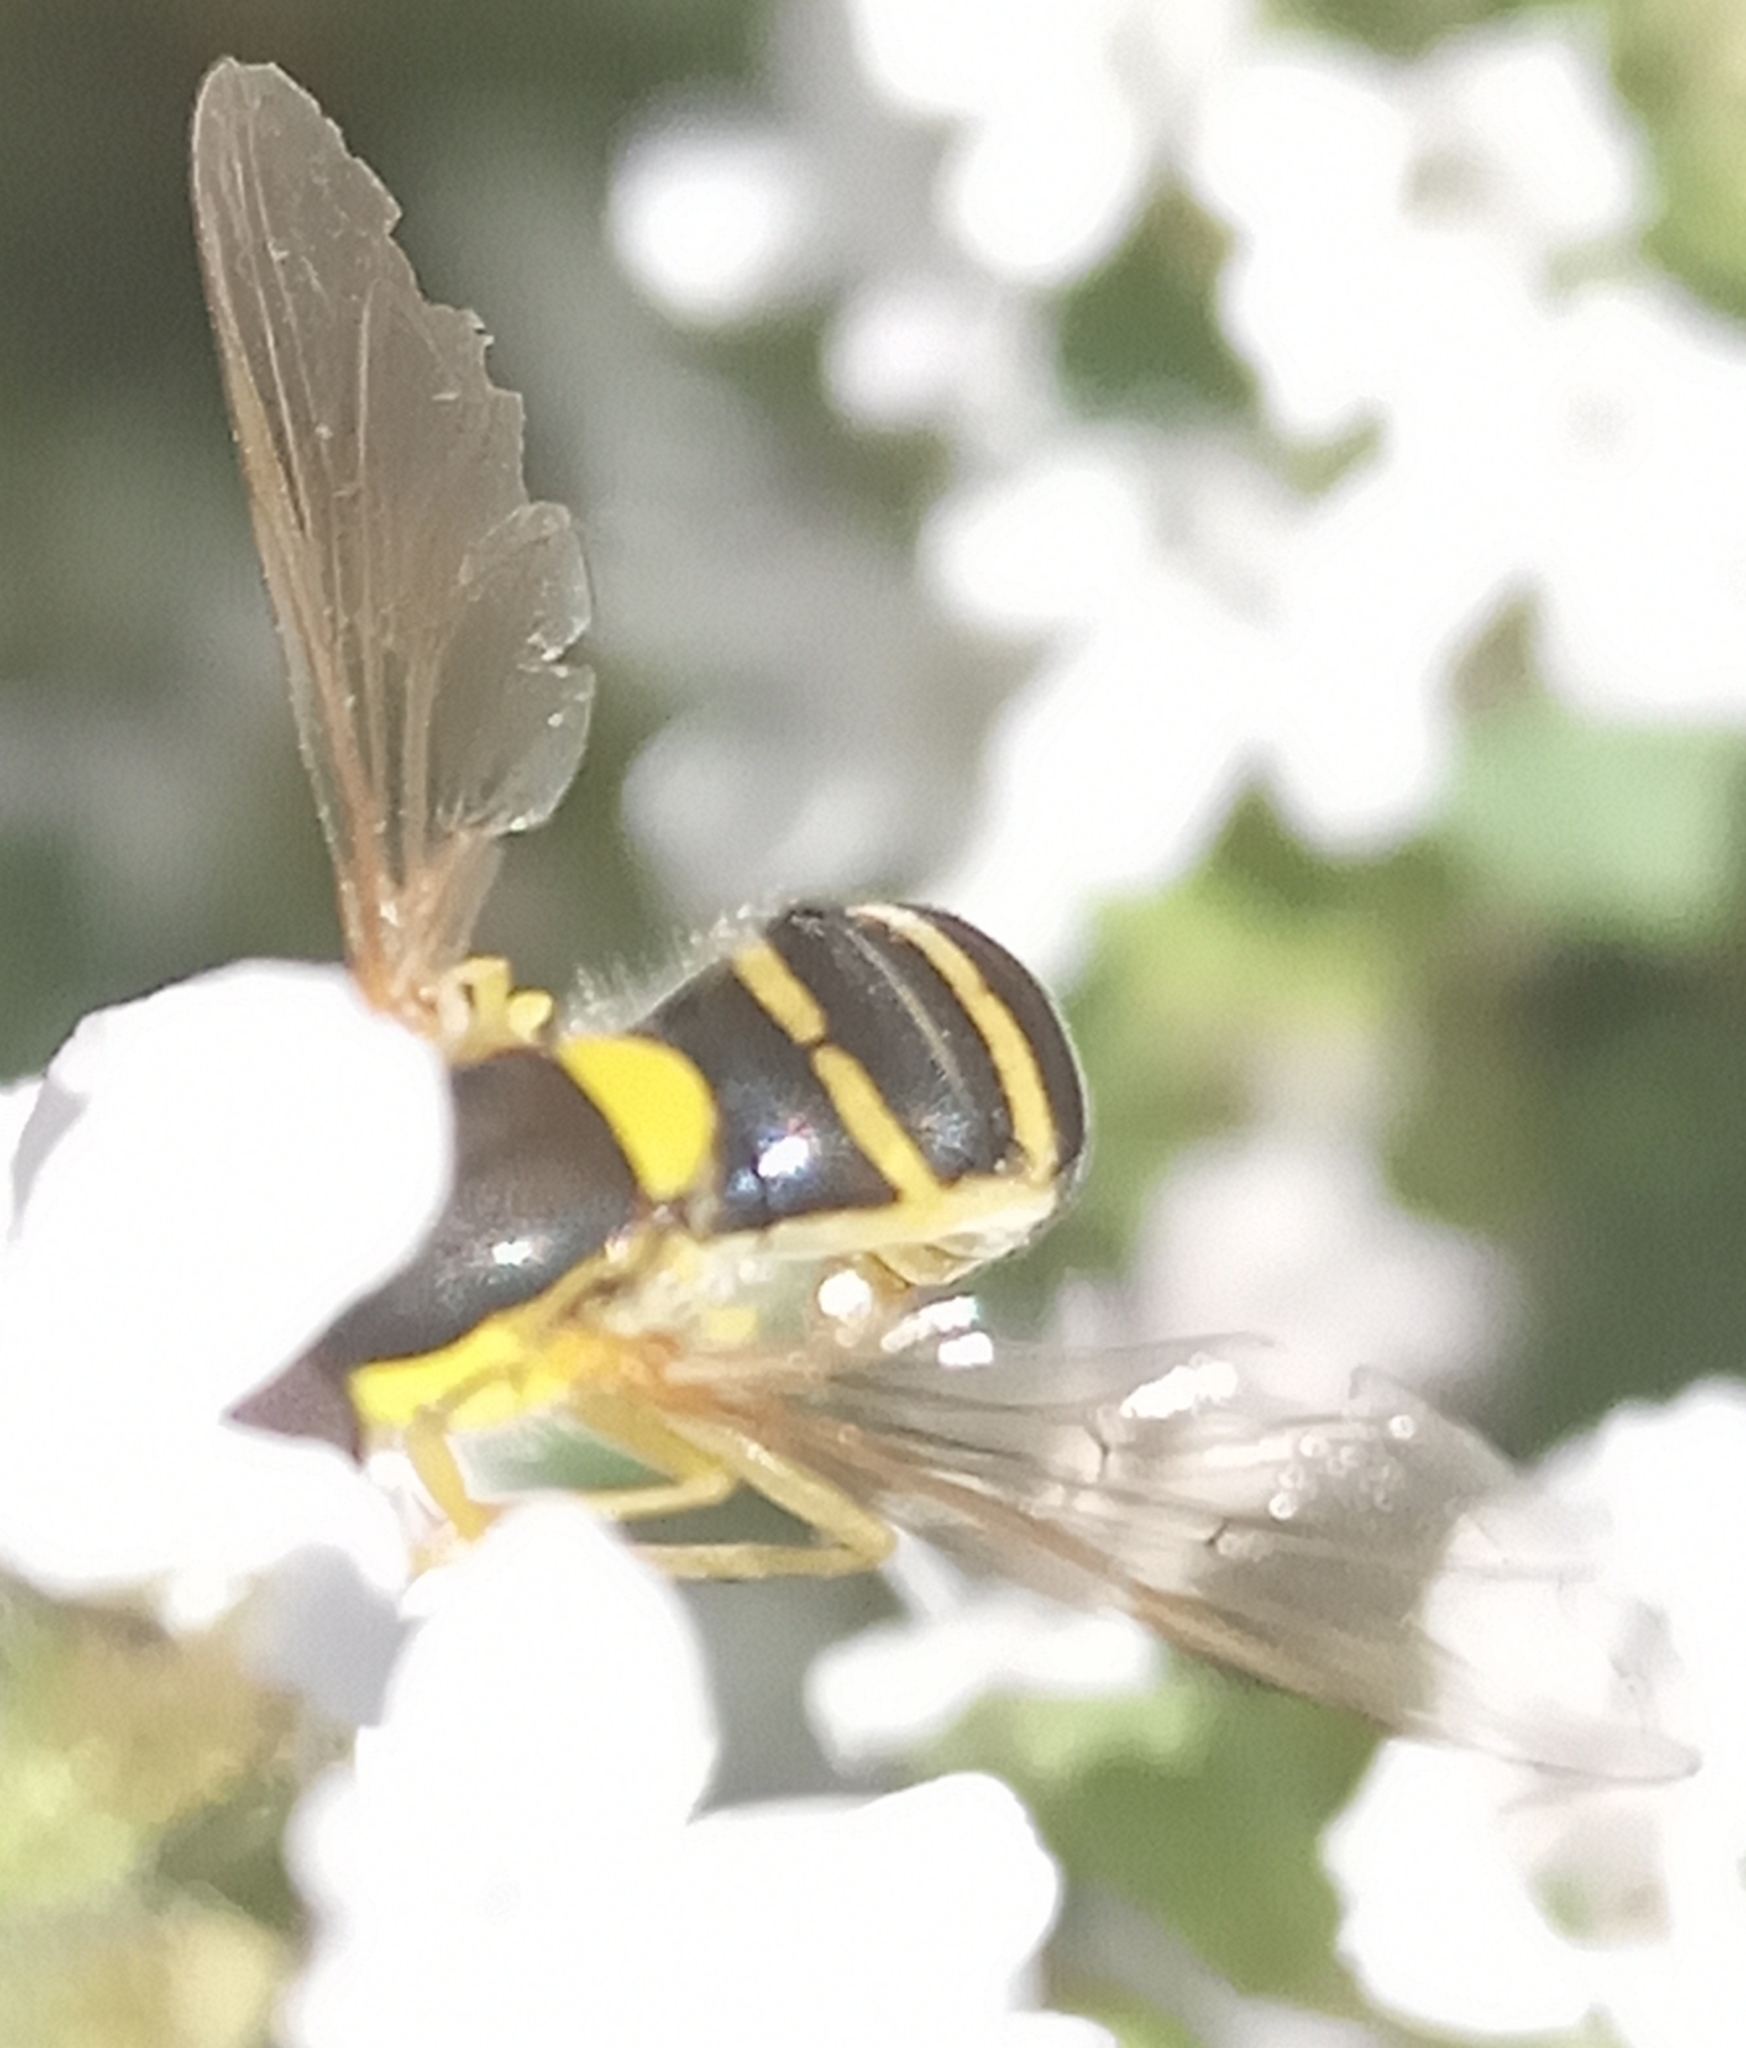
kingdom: Animalia
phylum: Arthropoda
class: Insecta
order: Diptera
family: Syrphidae
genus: Sphaerophoria
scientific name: Sphaerophoria
